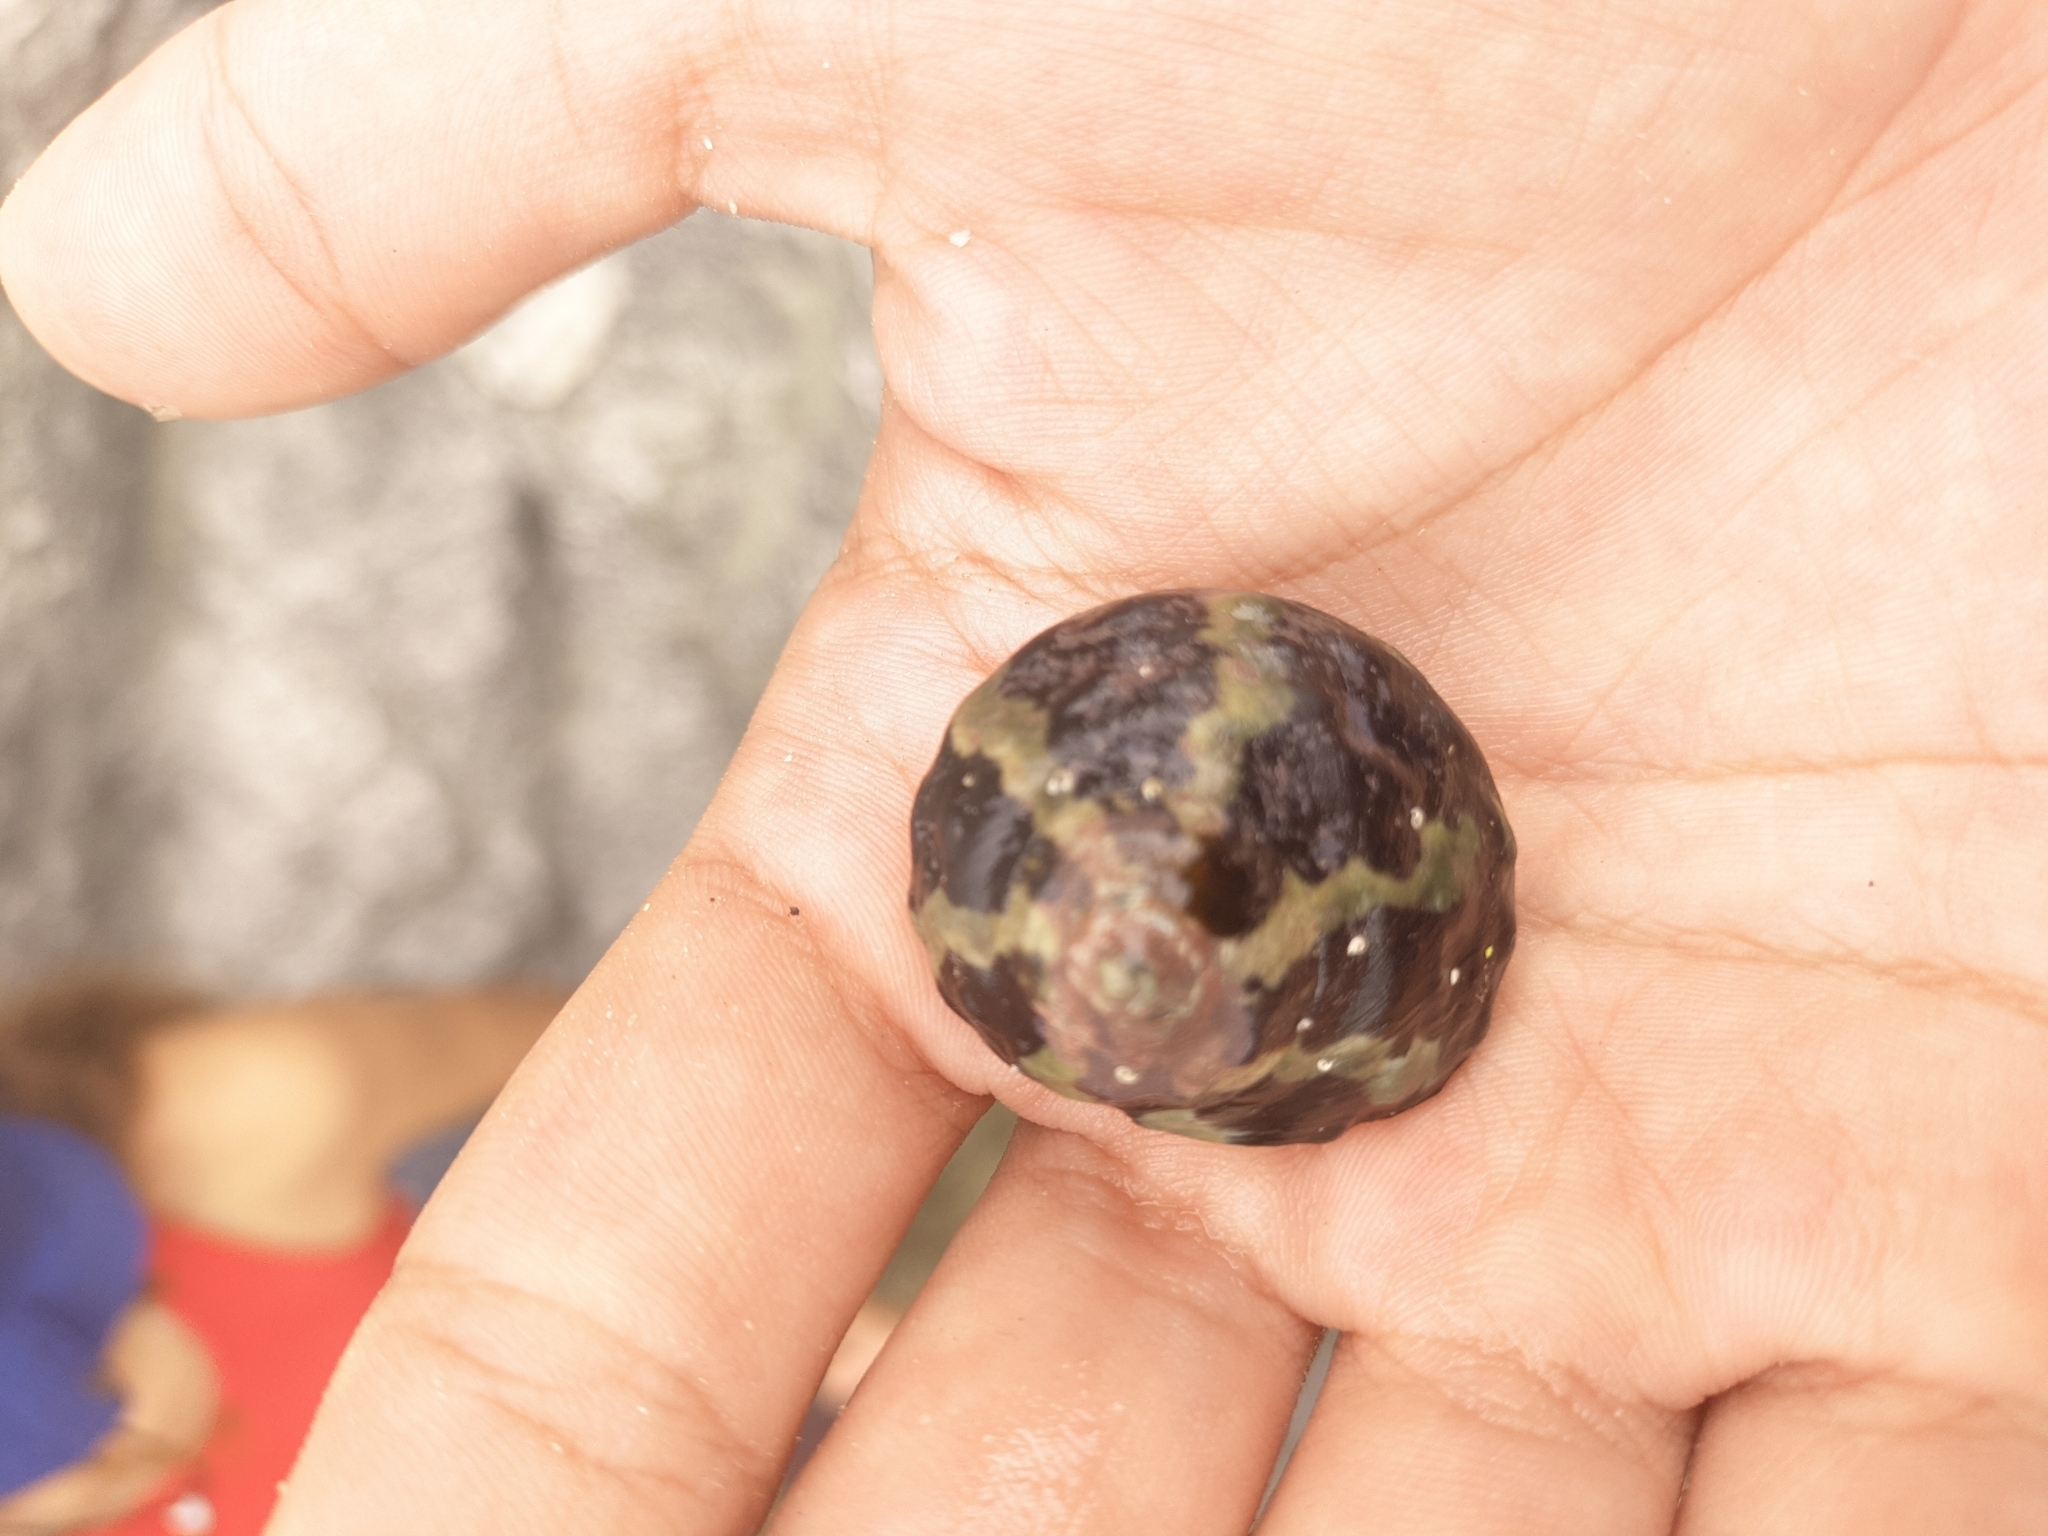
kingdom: Animalia
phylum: Mollusca
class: Gastropoda
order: Trochida
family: Tegulidae
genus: Cittarium
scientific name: Cittarium pica
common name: West indian topshell
